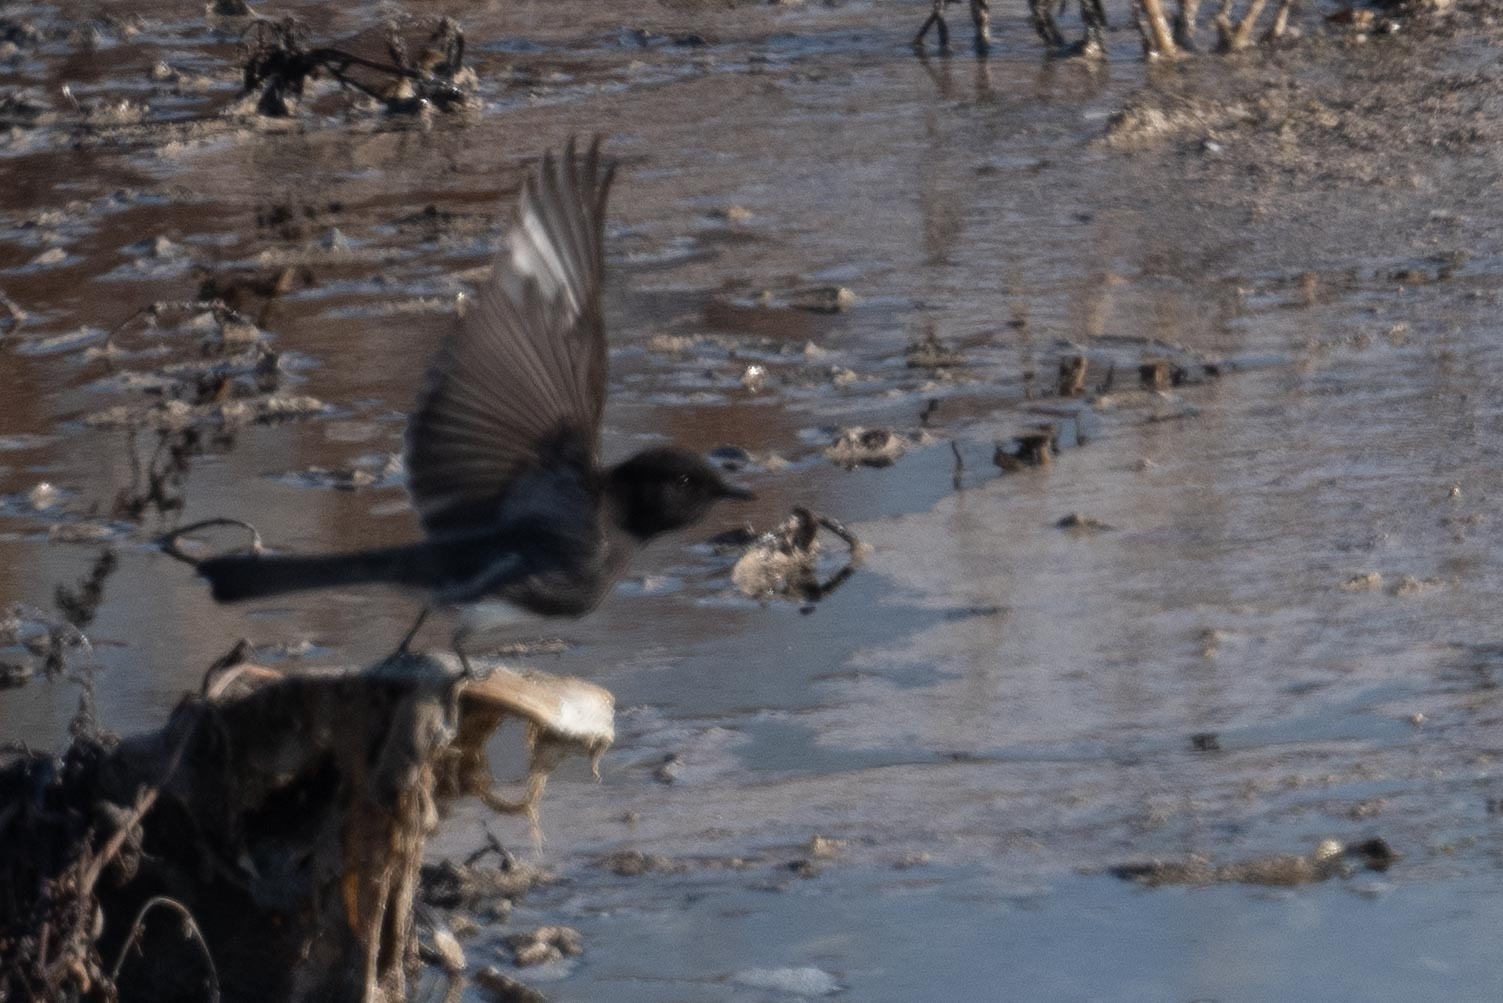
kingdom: Animalia
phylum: Chordata
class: Aves
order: Passeriformes
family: Tyrannidae
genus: Sayornis
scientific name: Sayornis nigricans
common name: Black phoebe
